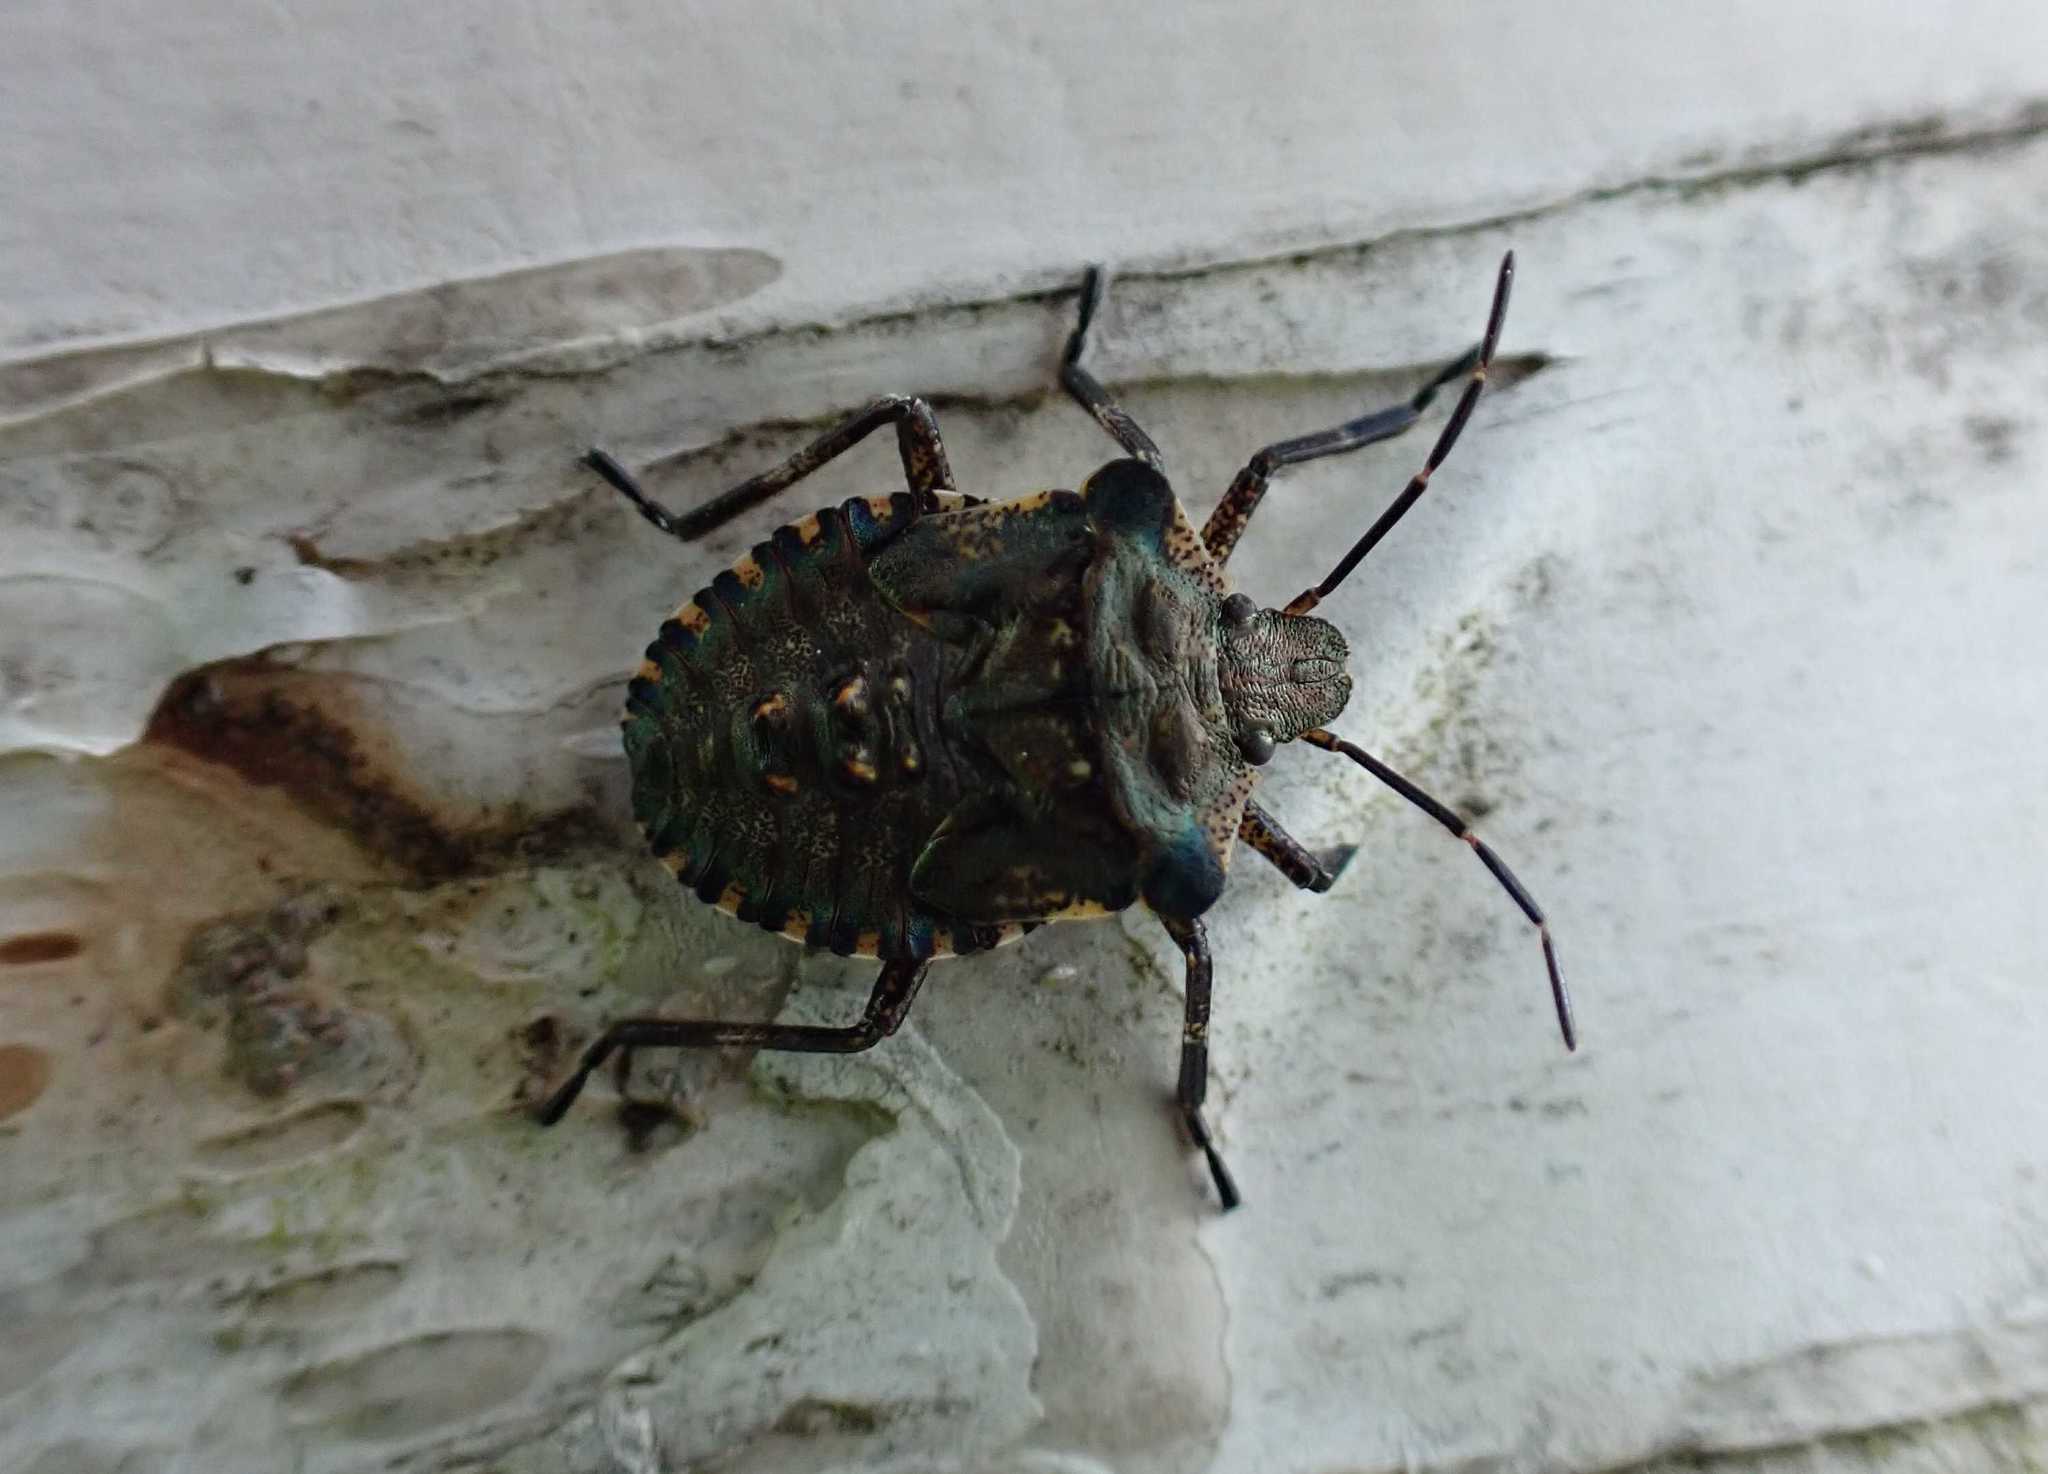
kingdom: Animalia
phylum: Arthropoda
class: Insecta
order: Hemiptera
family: Pentatomidae
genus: Pentatoma
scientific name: Pentatoma rufipes
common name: Forest bug
